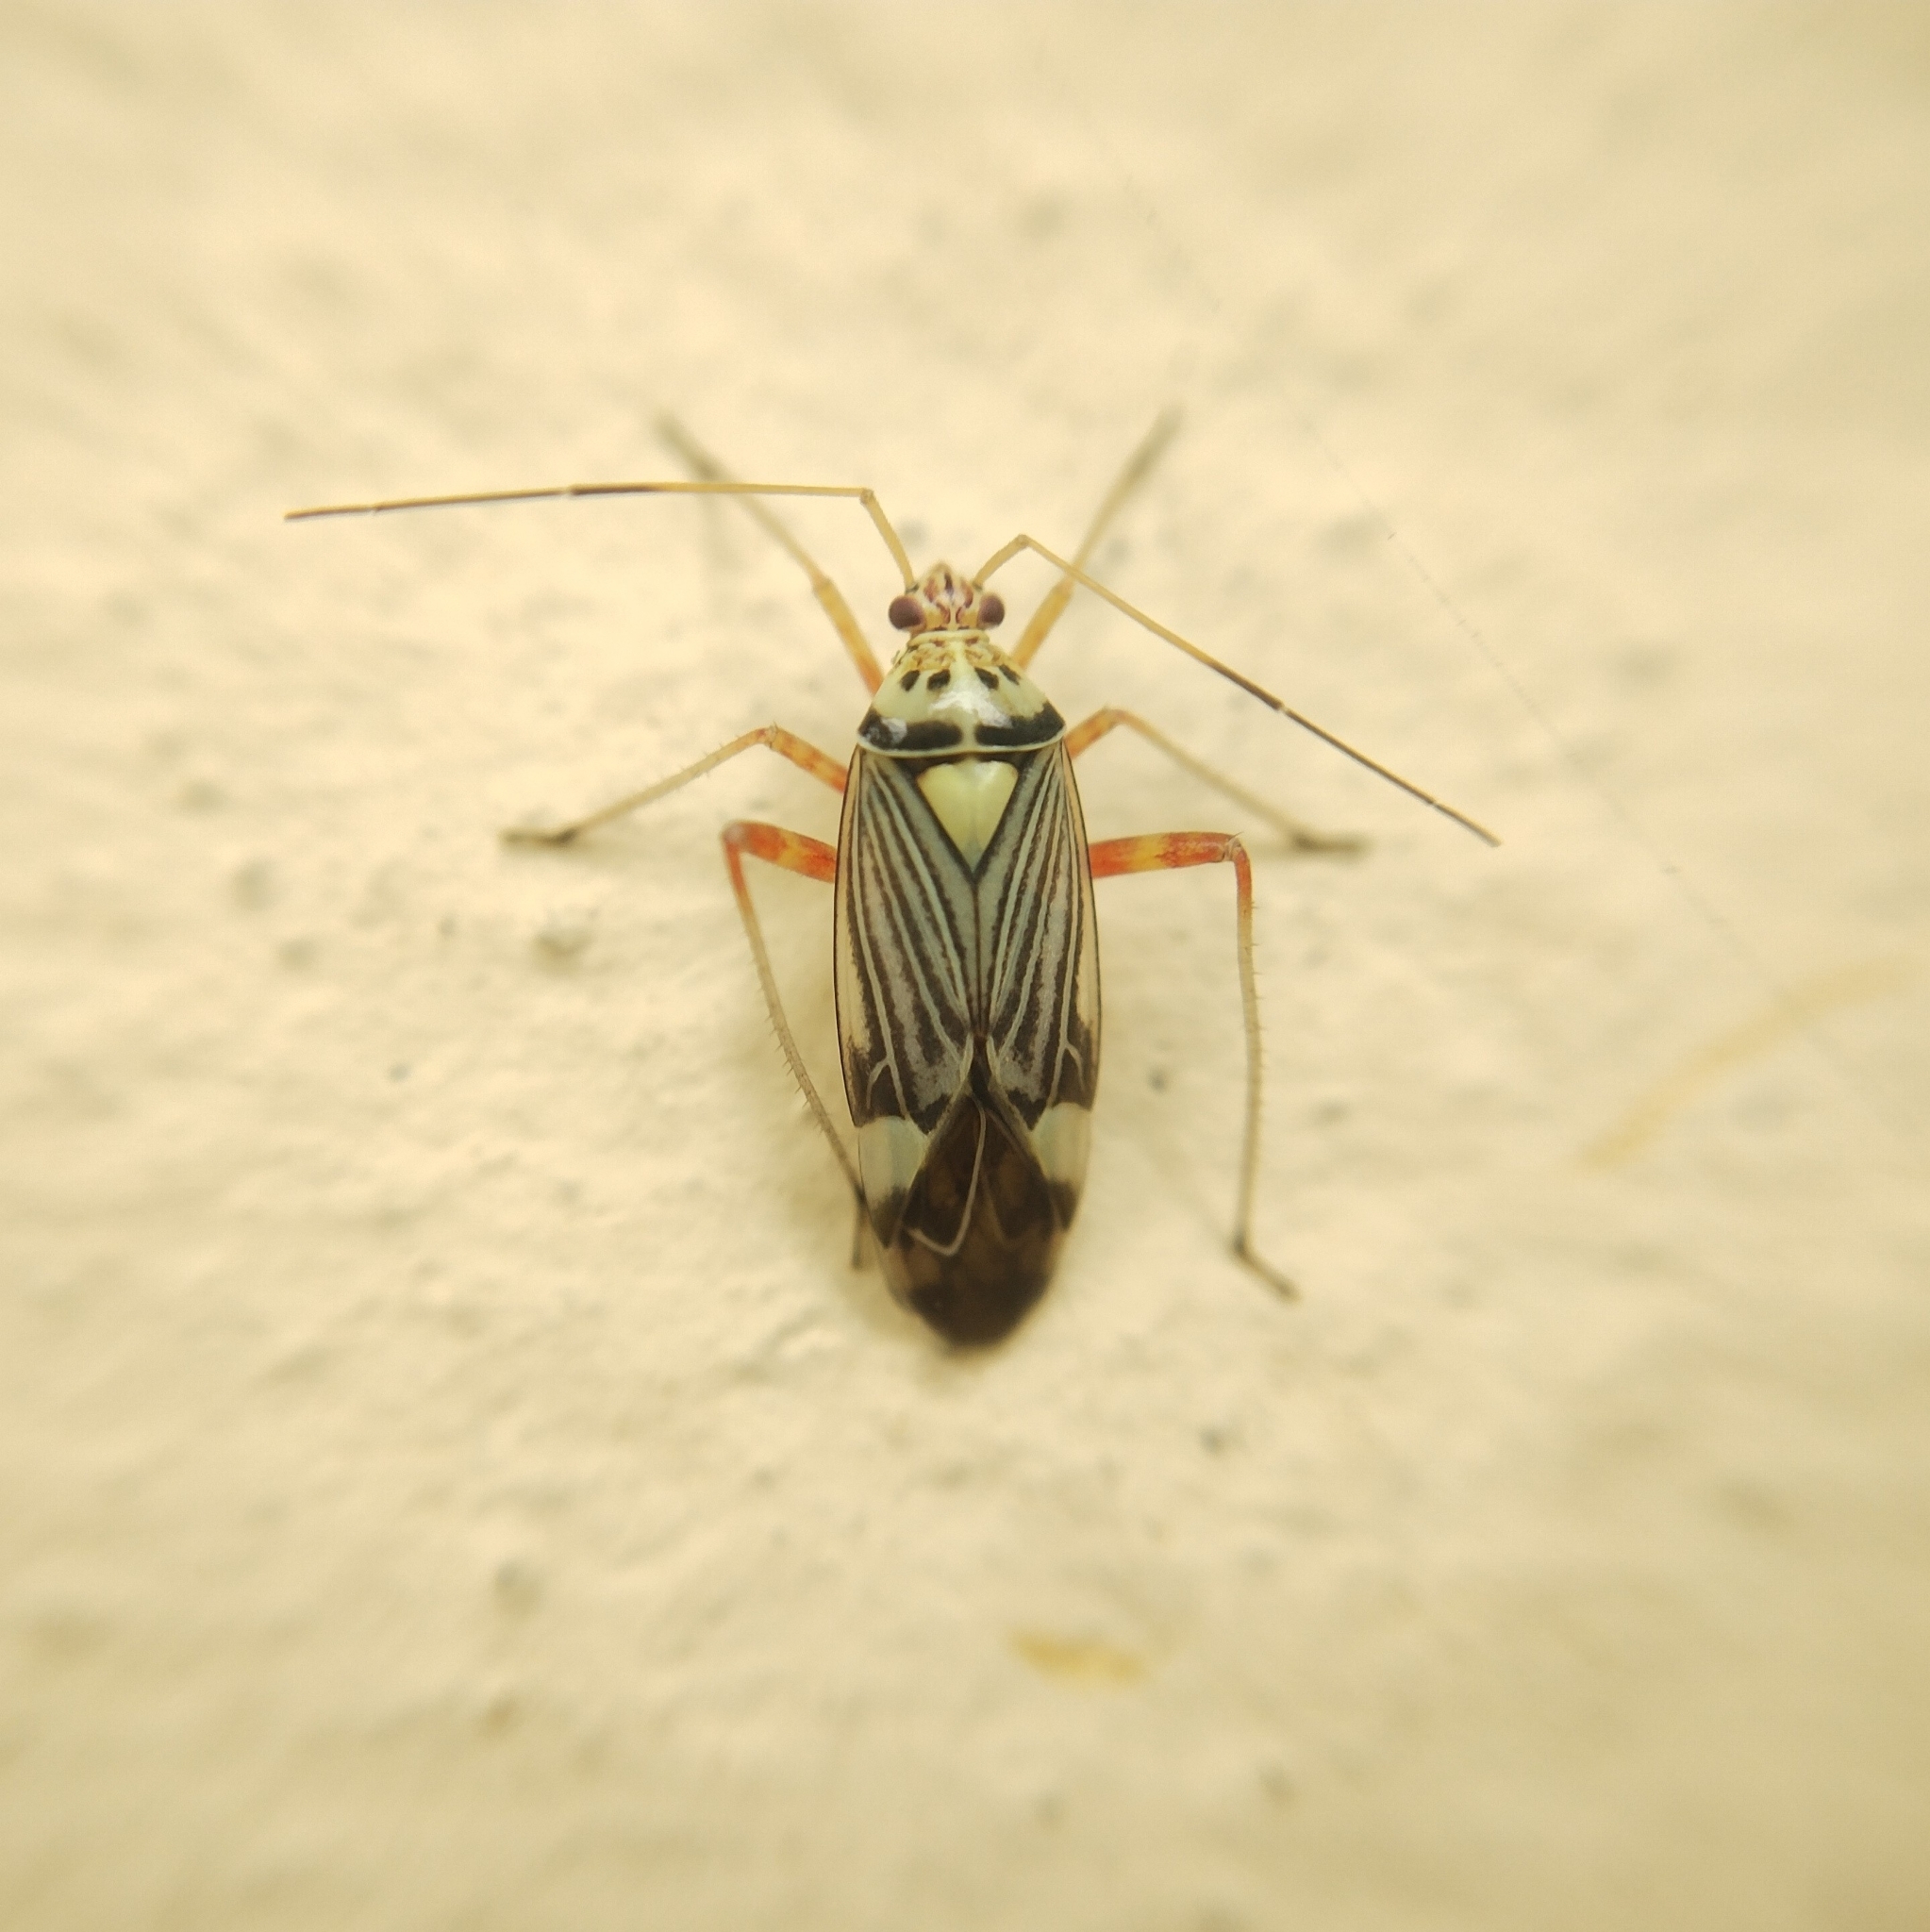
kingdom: Animalia
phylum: Arthropoda
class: Insecta
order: Hemiptera
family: Miridae
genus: Rhabdomiris
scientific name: Rhabdomiris striatellus
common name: Plant bug
